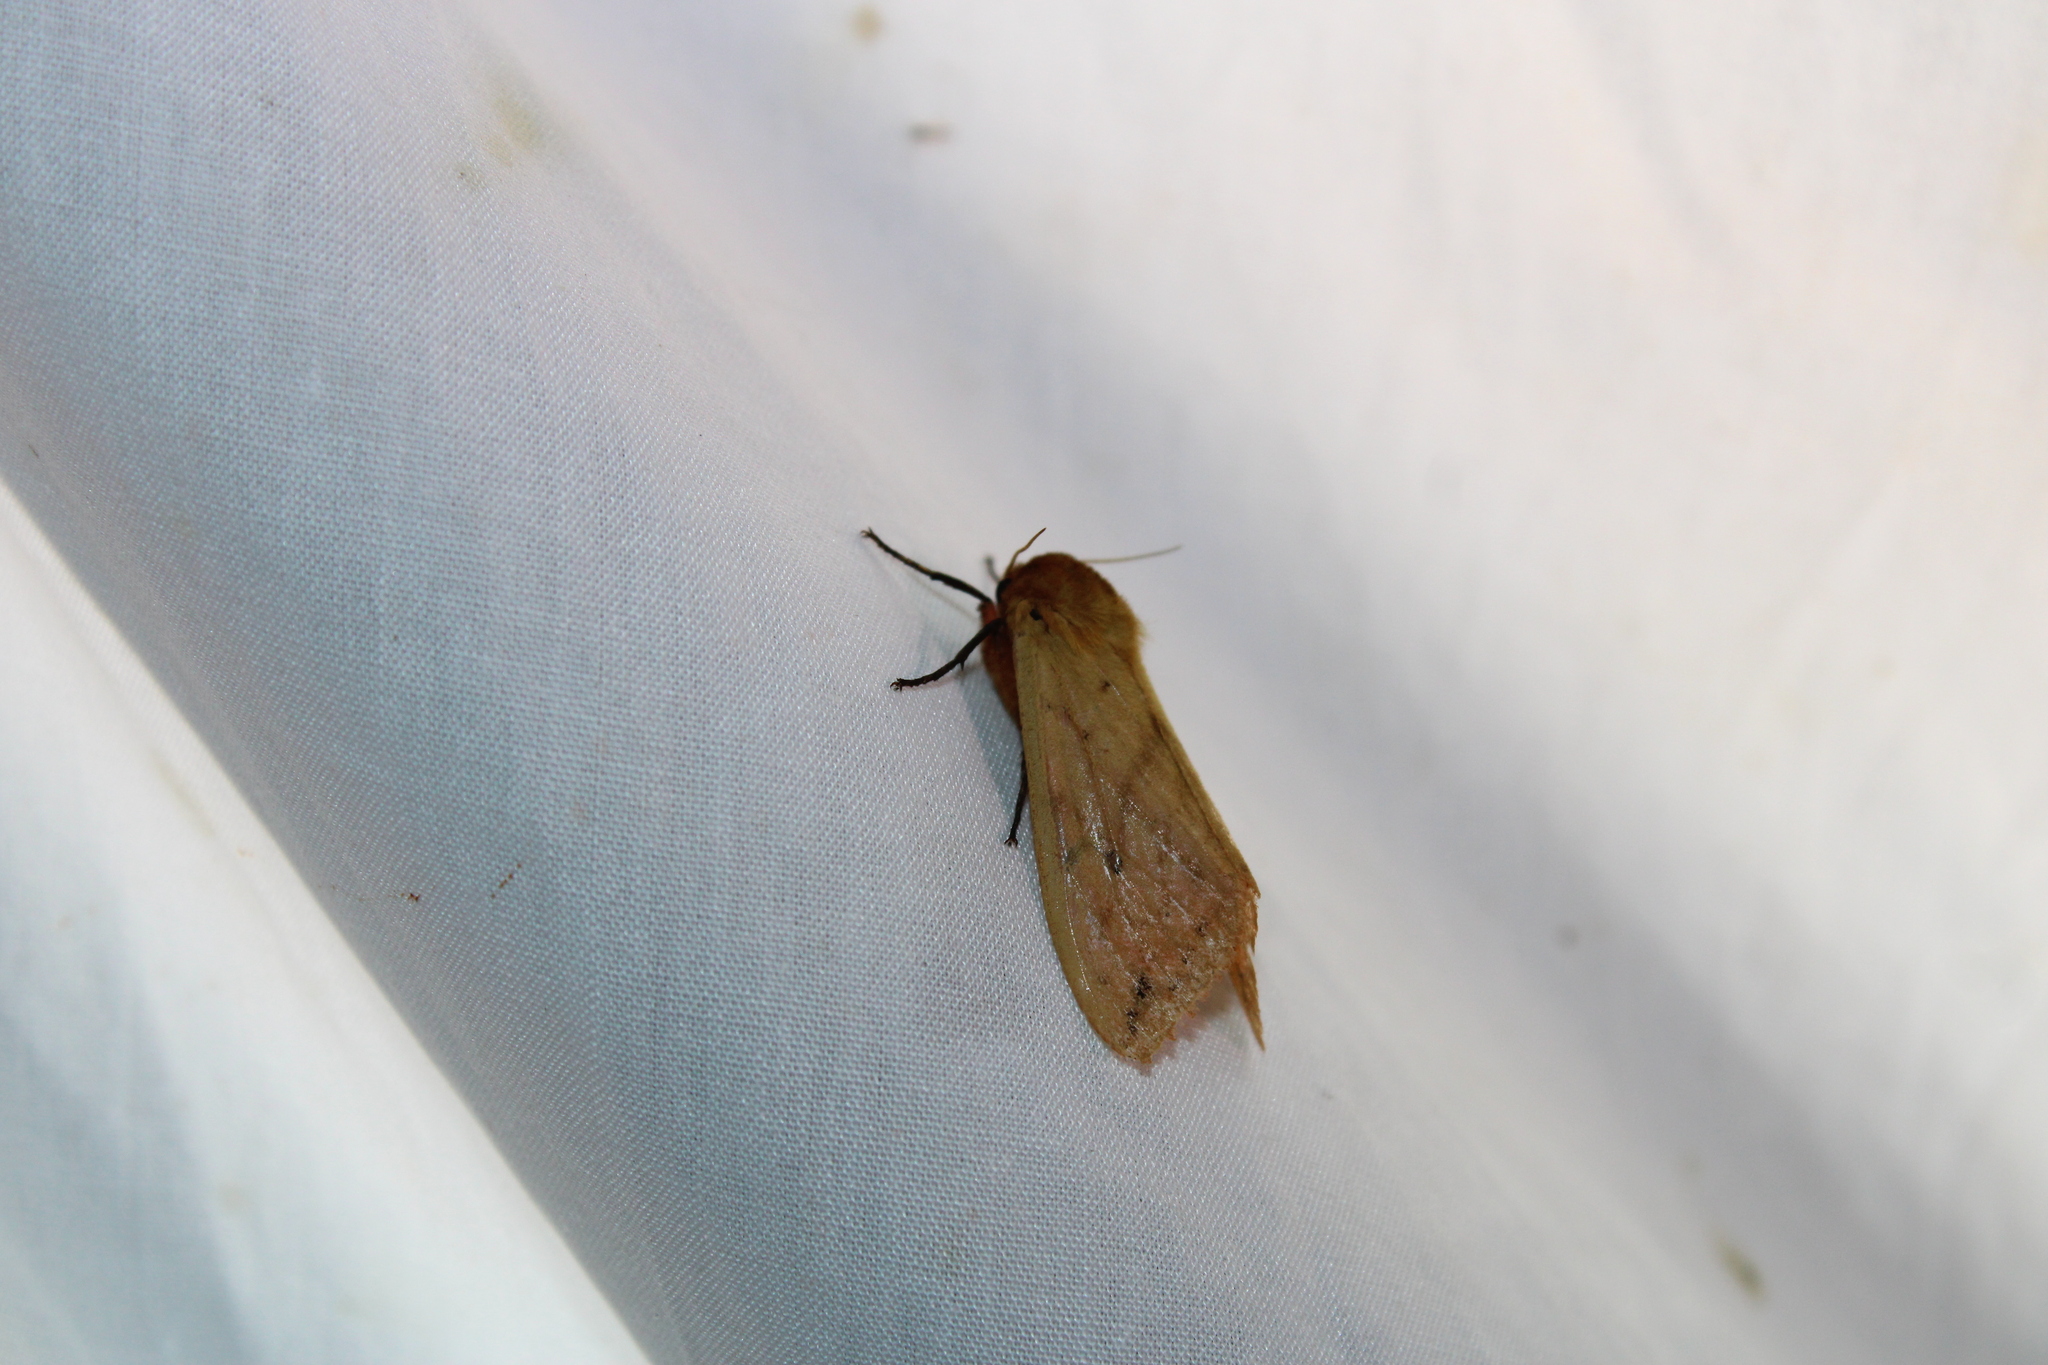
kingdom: Animalia
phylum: Arthropoda
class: Insecta
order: Lepidoptera
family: Erebidae
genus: Pyrrharctia
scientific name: Pyrrharctia isabella
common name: Isabella tiger moth
